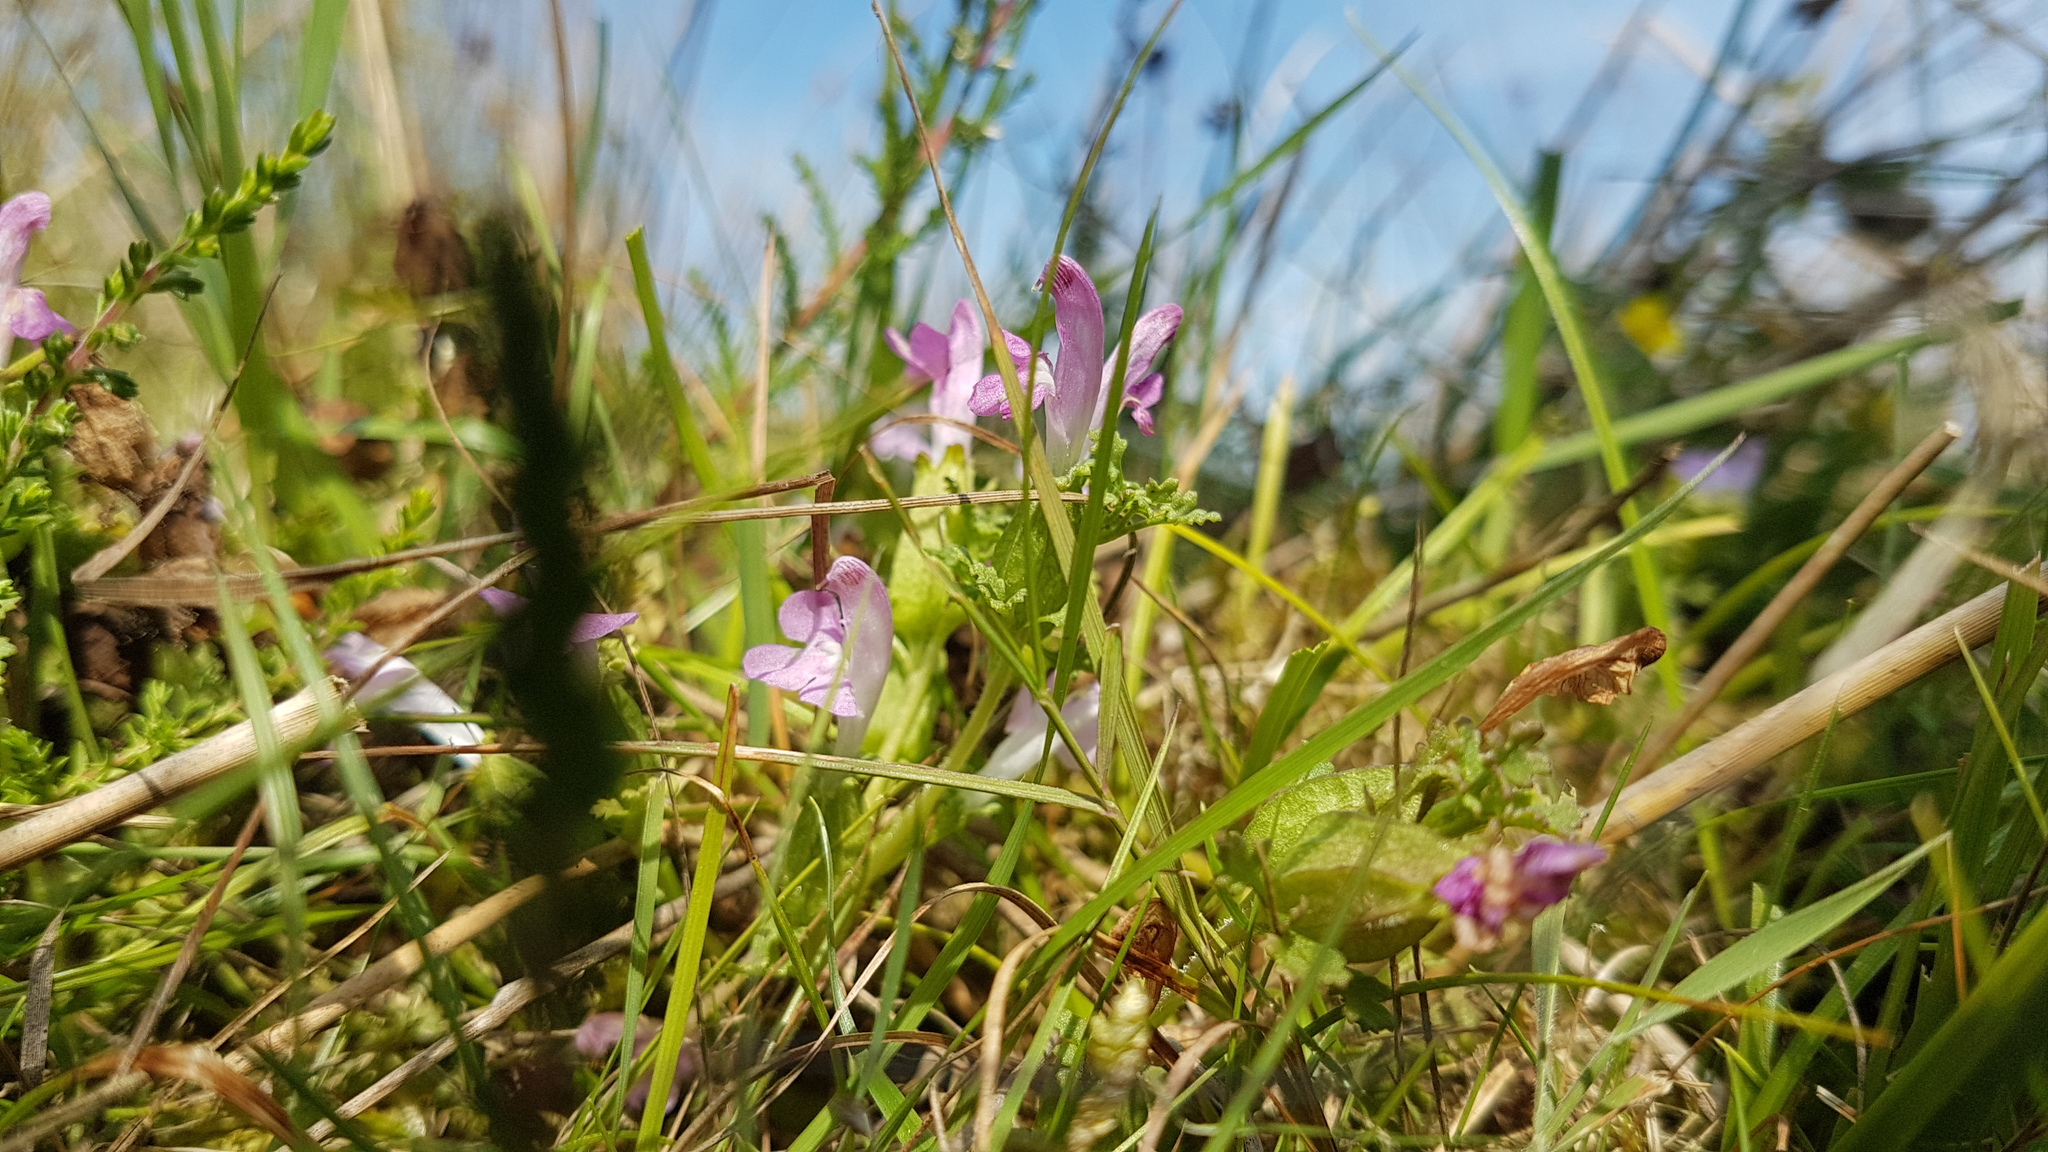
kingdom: Plantae
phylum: Tracheophyta
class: Magnoliopsida
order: Lamiales
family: Orobanchaceae
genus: Pedicularis
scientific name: Pedicularis sylvatica
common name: Lousewort
